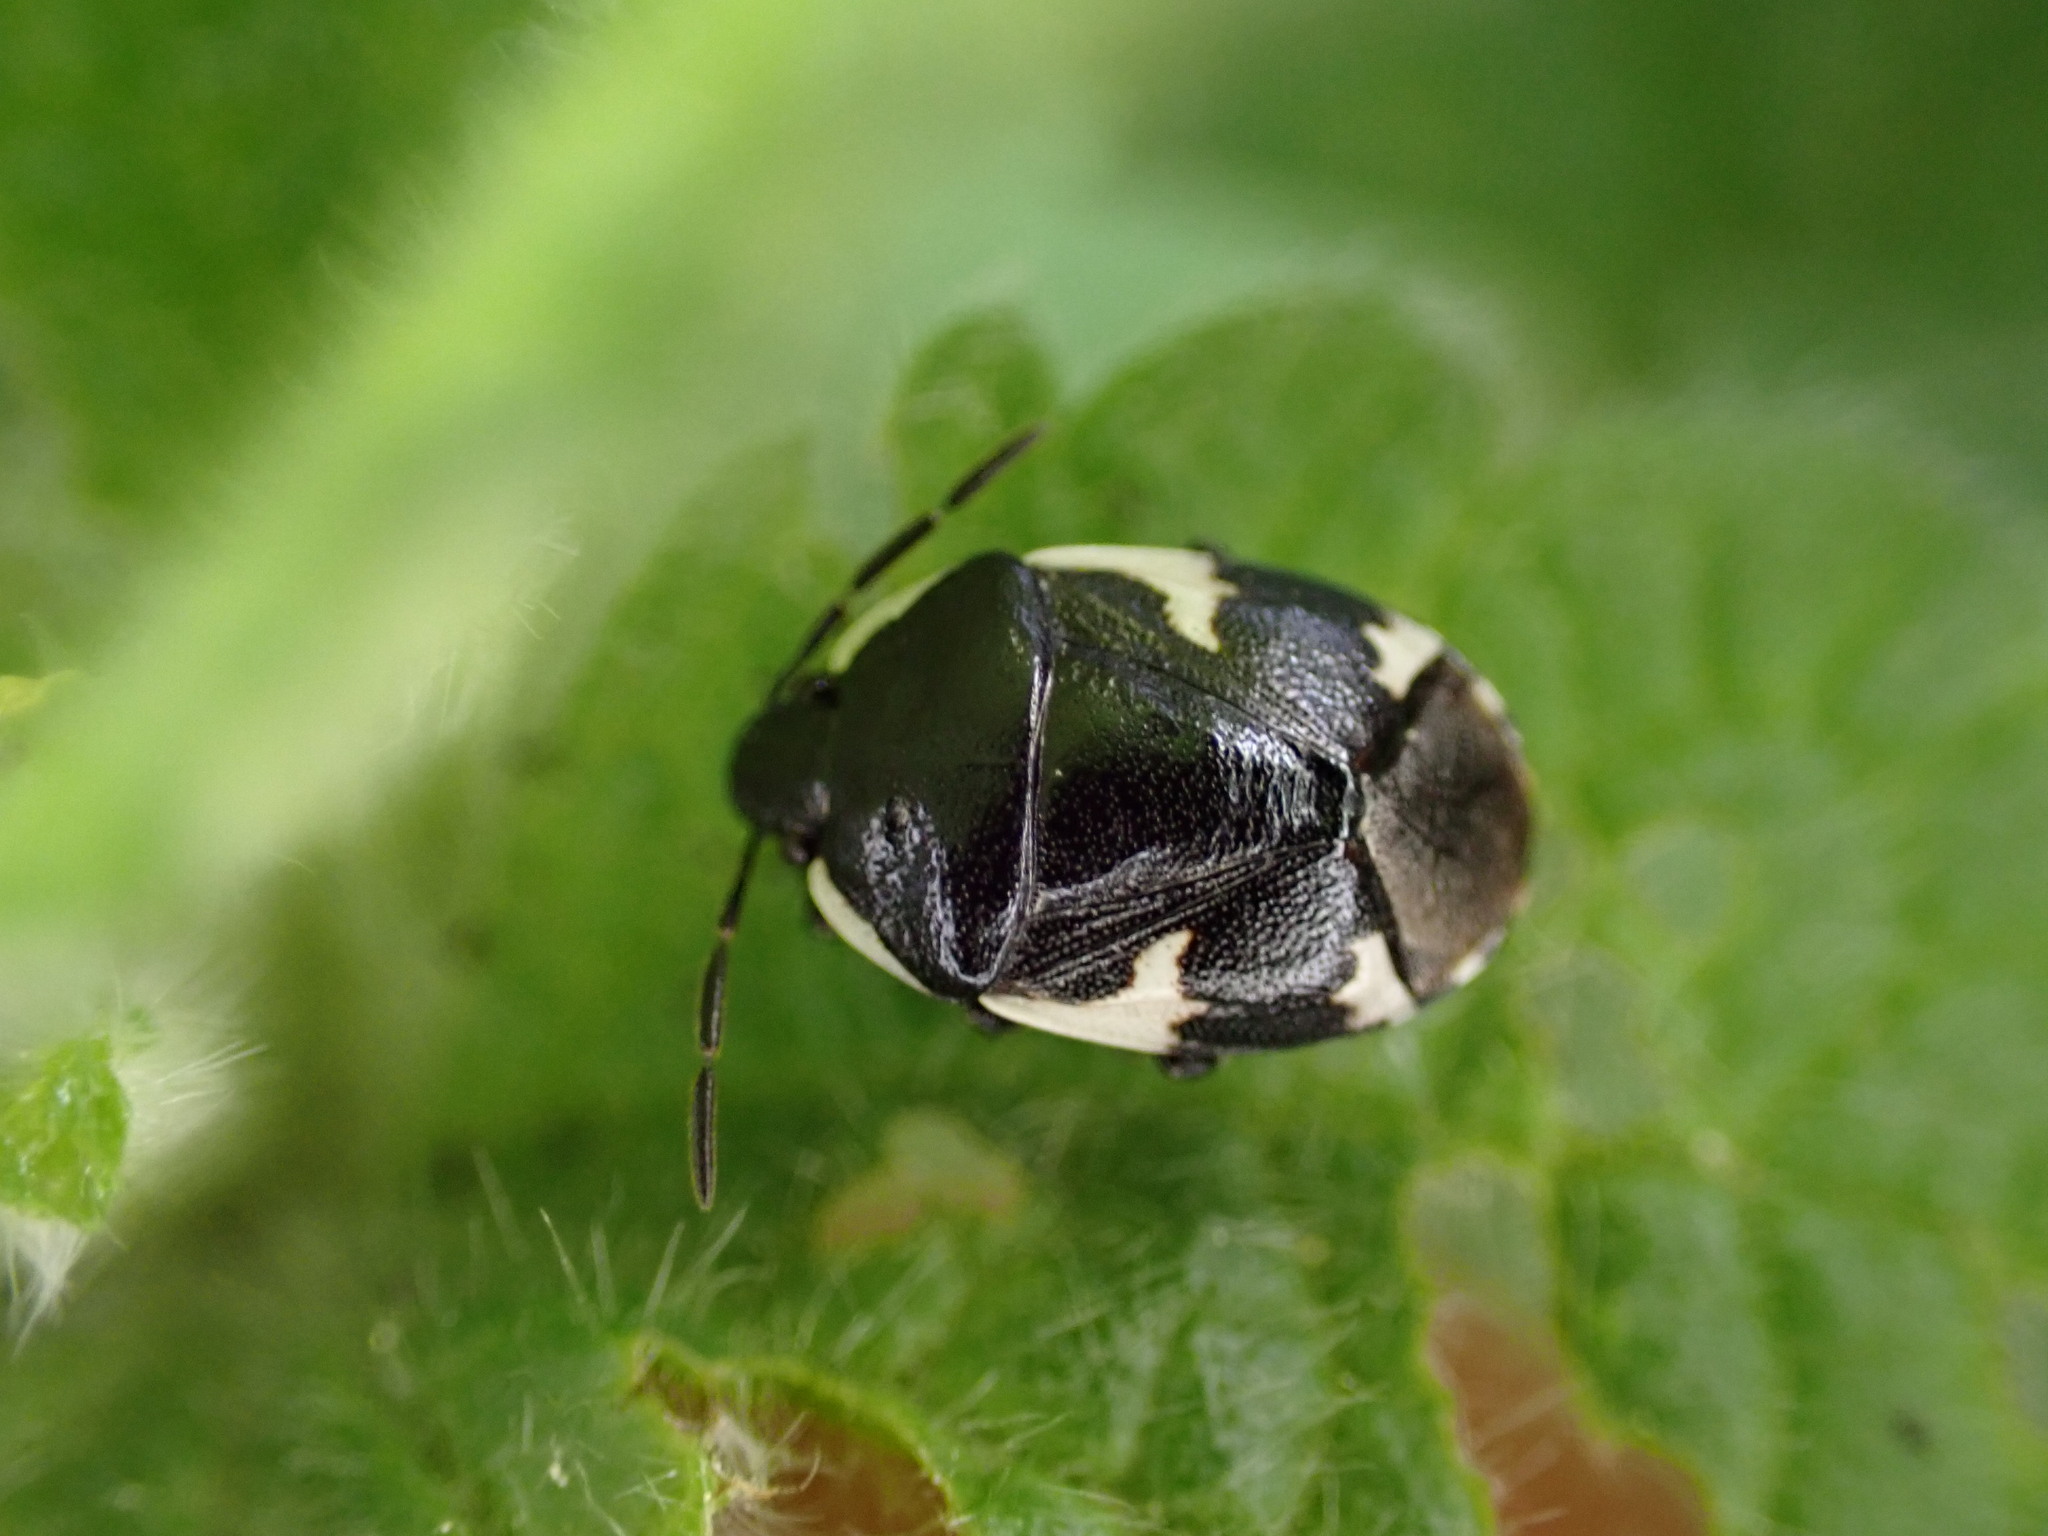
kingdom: Animalia
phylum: Arthropoda
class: Insecta
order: Hemiptera
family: Cydnidae
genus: Tritomegas
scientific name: Tritomegas sexmaculatus
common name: Rambur's pied shieldbug
